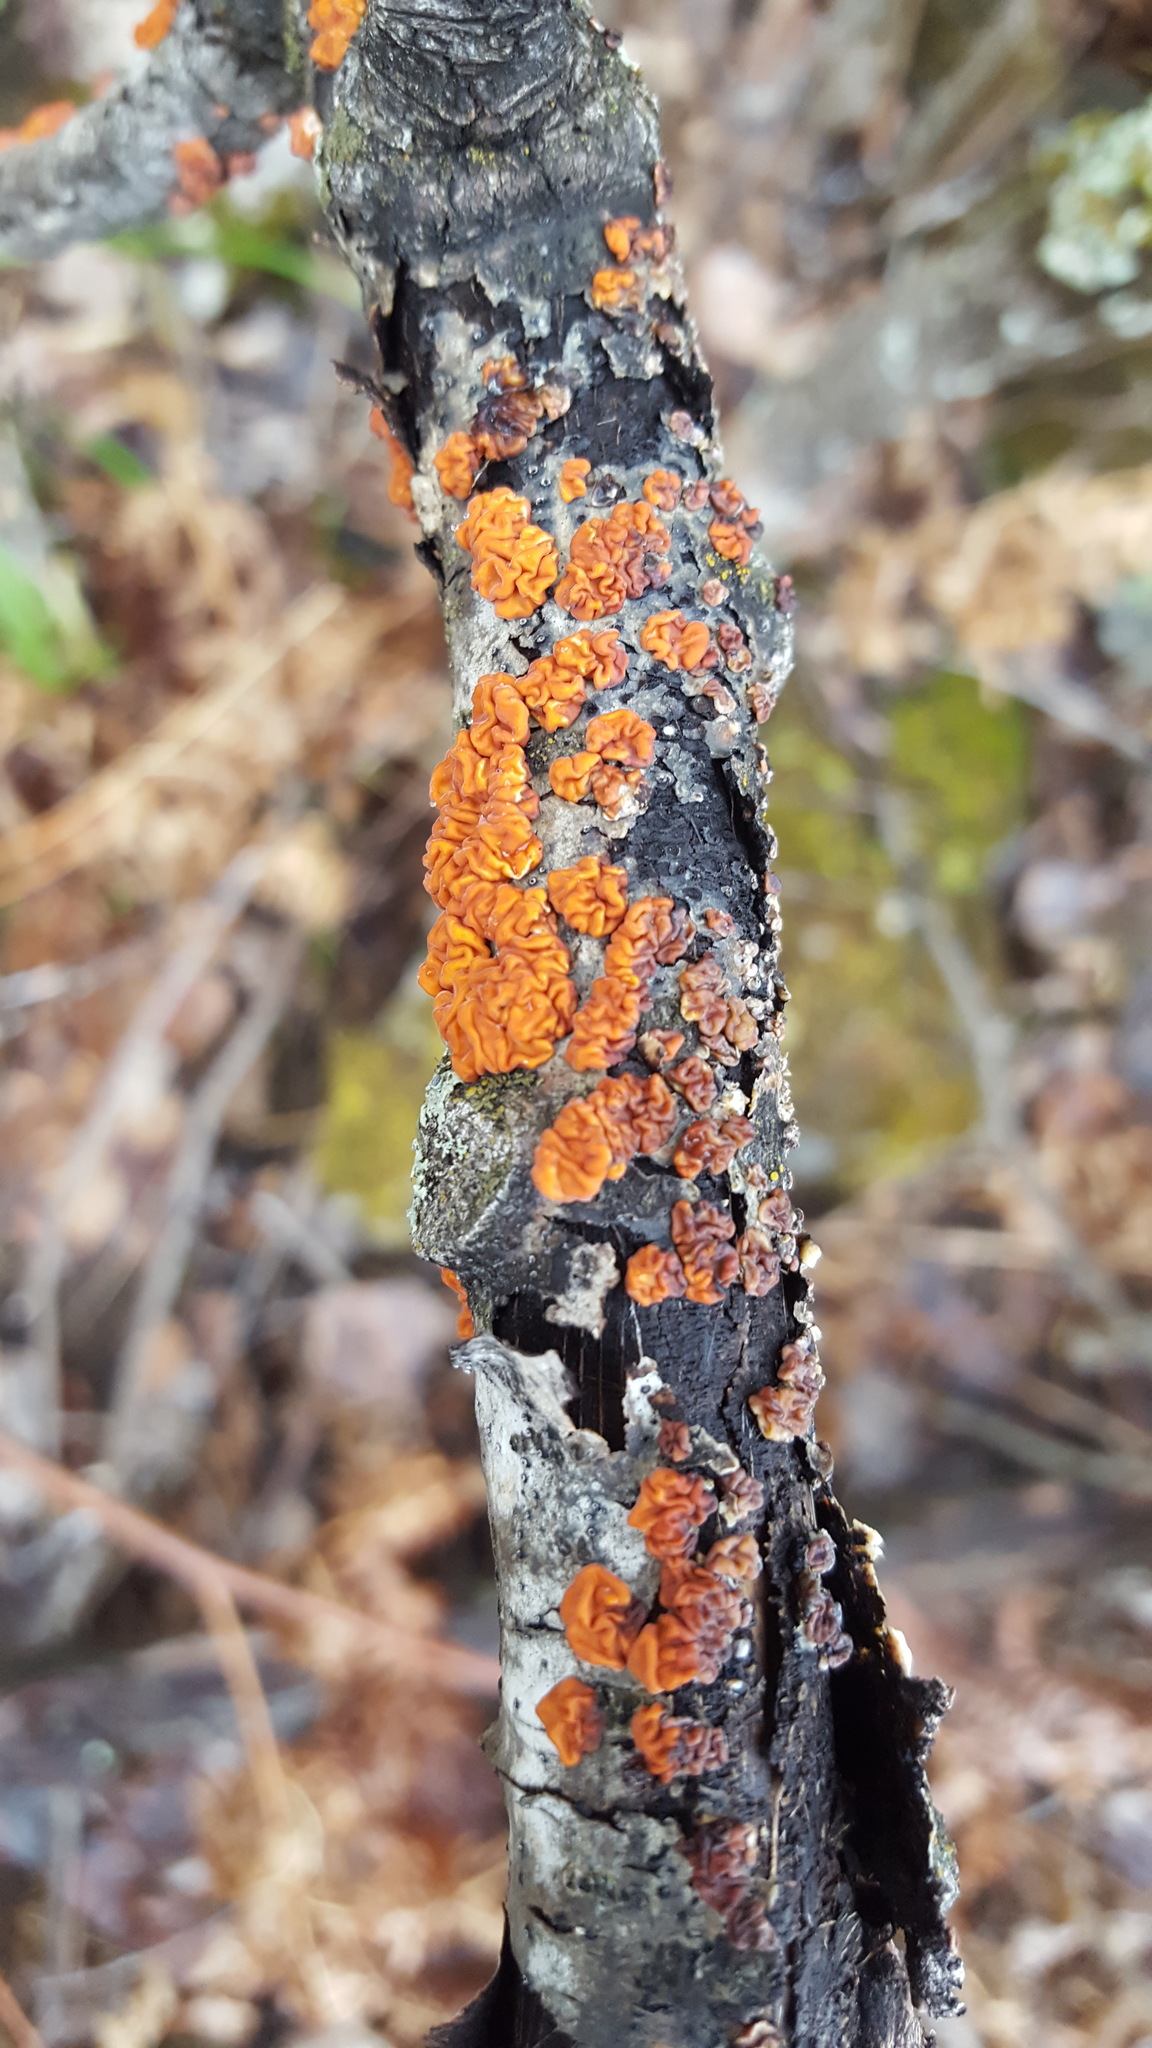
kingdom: Fungi
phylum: Basidiomycota
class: Agaricomycetes
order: Russulales
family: Peniophoraceae
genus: Peniophora
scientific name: Peniophora rufa
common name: Red tree brain fungus
